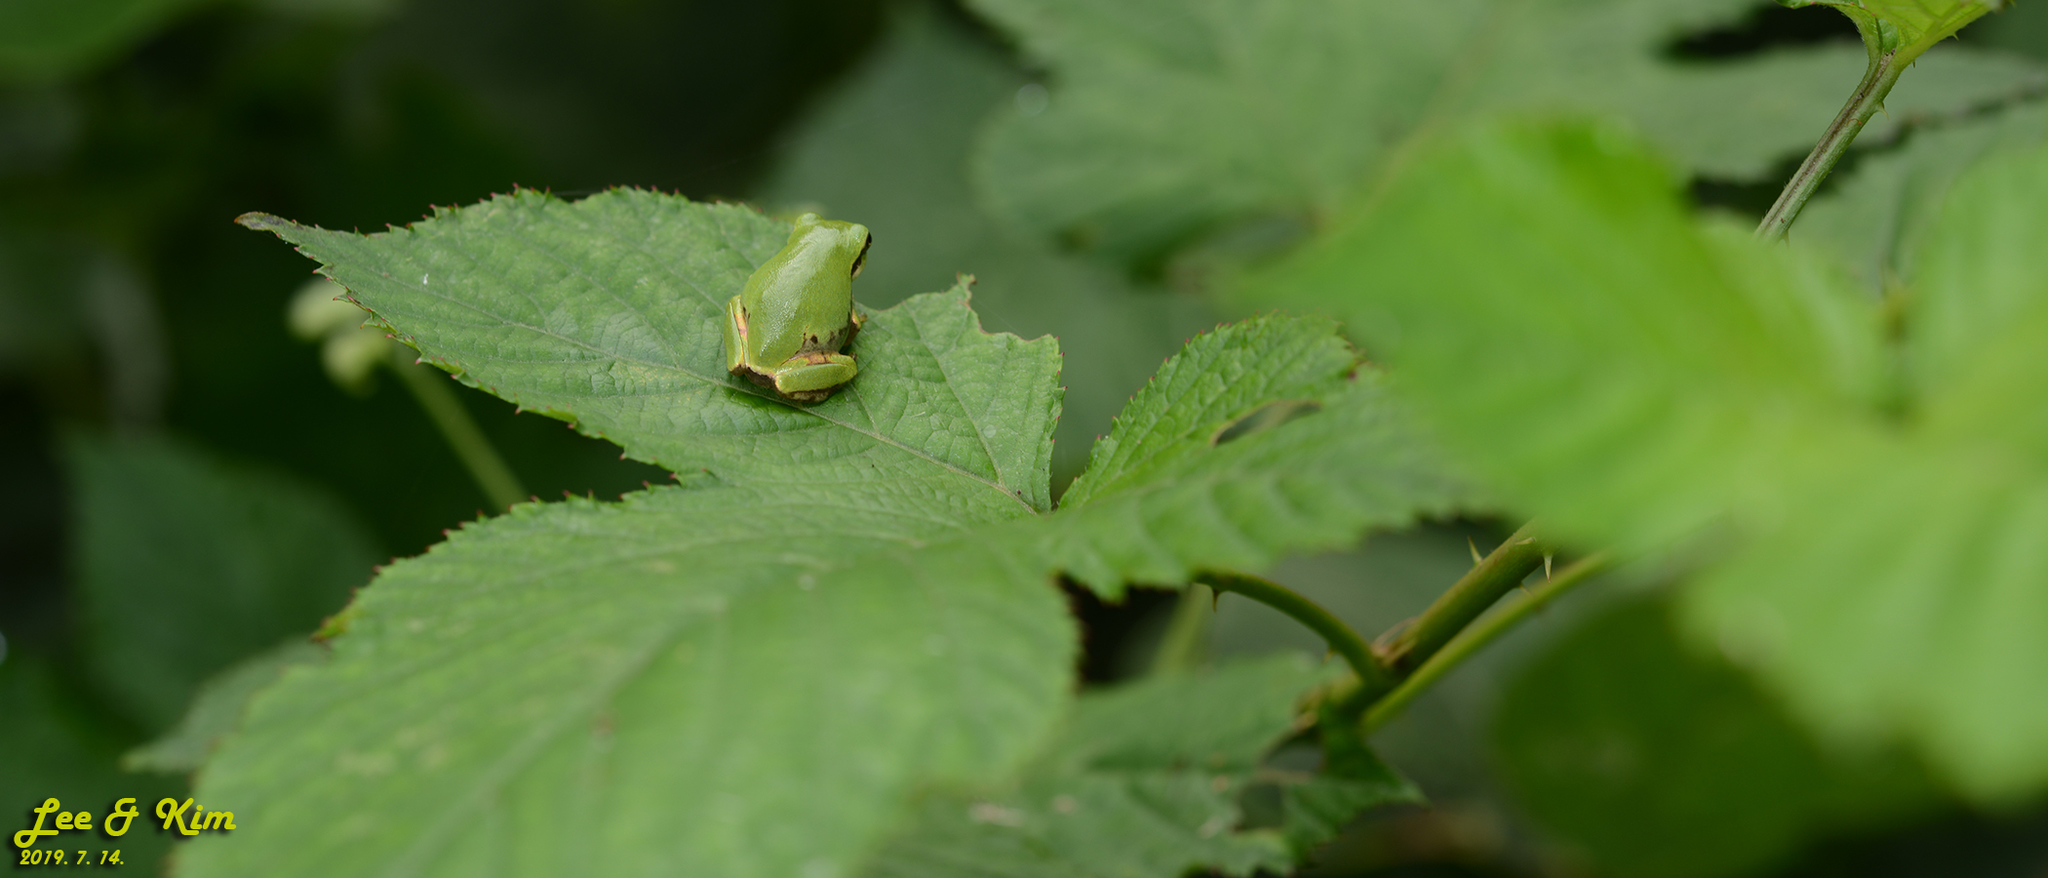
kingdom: Animalia
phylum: Chordata
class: Amphibia
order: Anura
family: Hylidae
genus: Dryophytes
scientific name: Dryophytes japonicus
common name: Japanese treefrog
